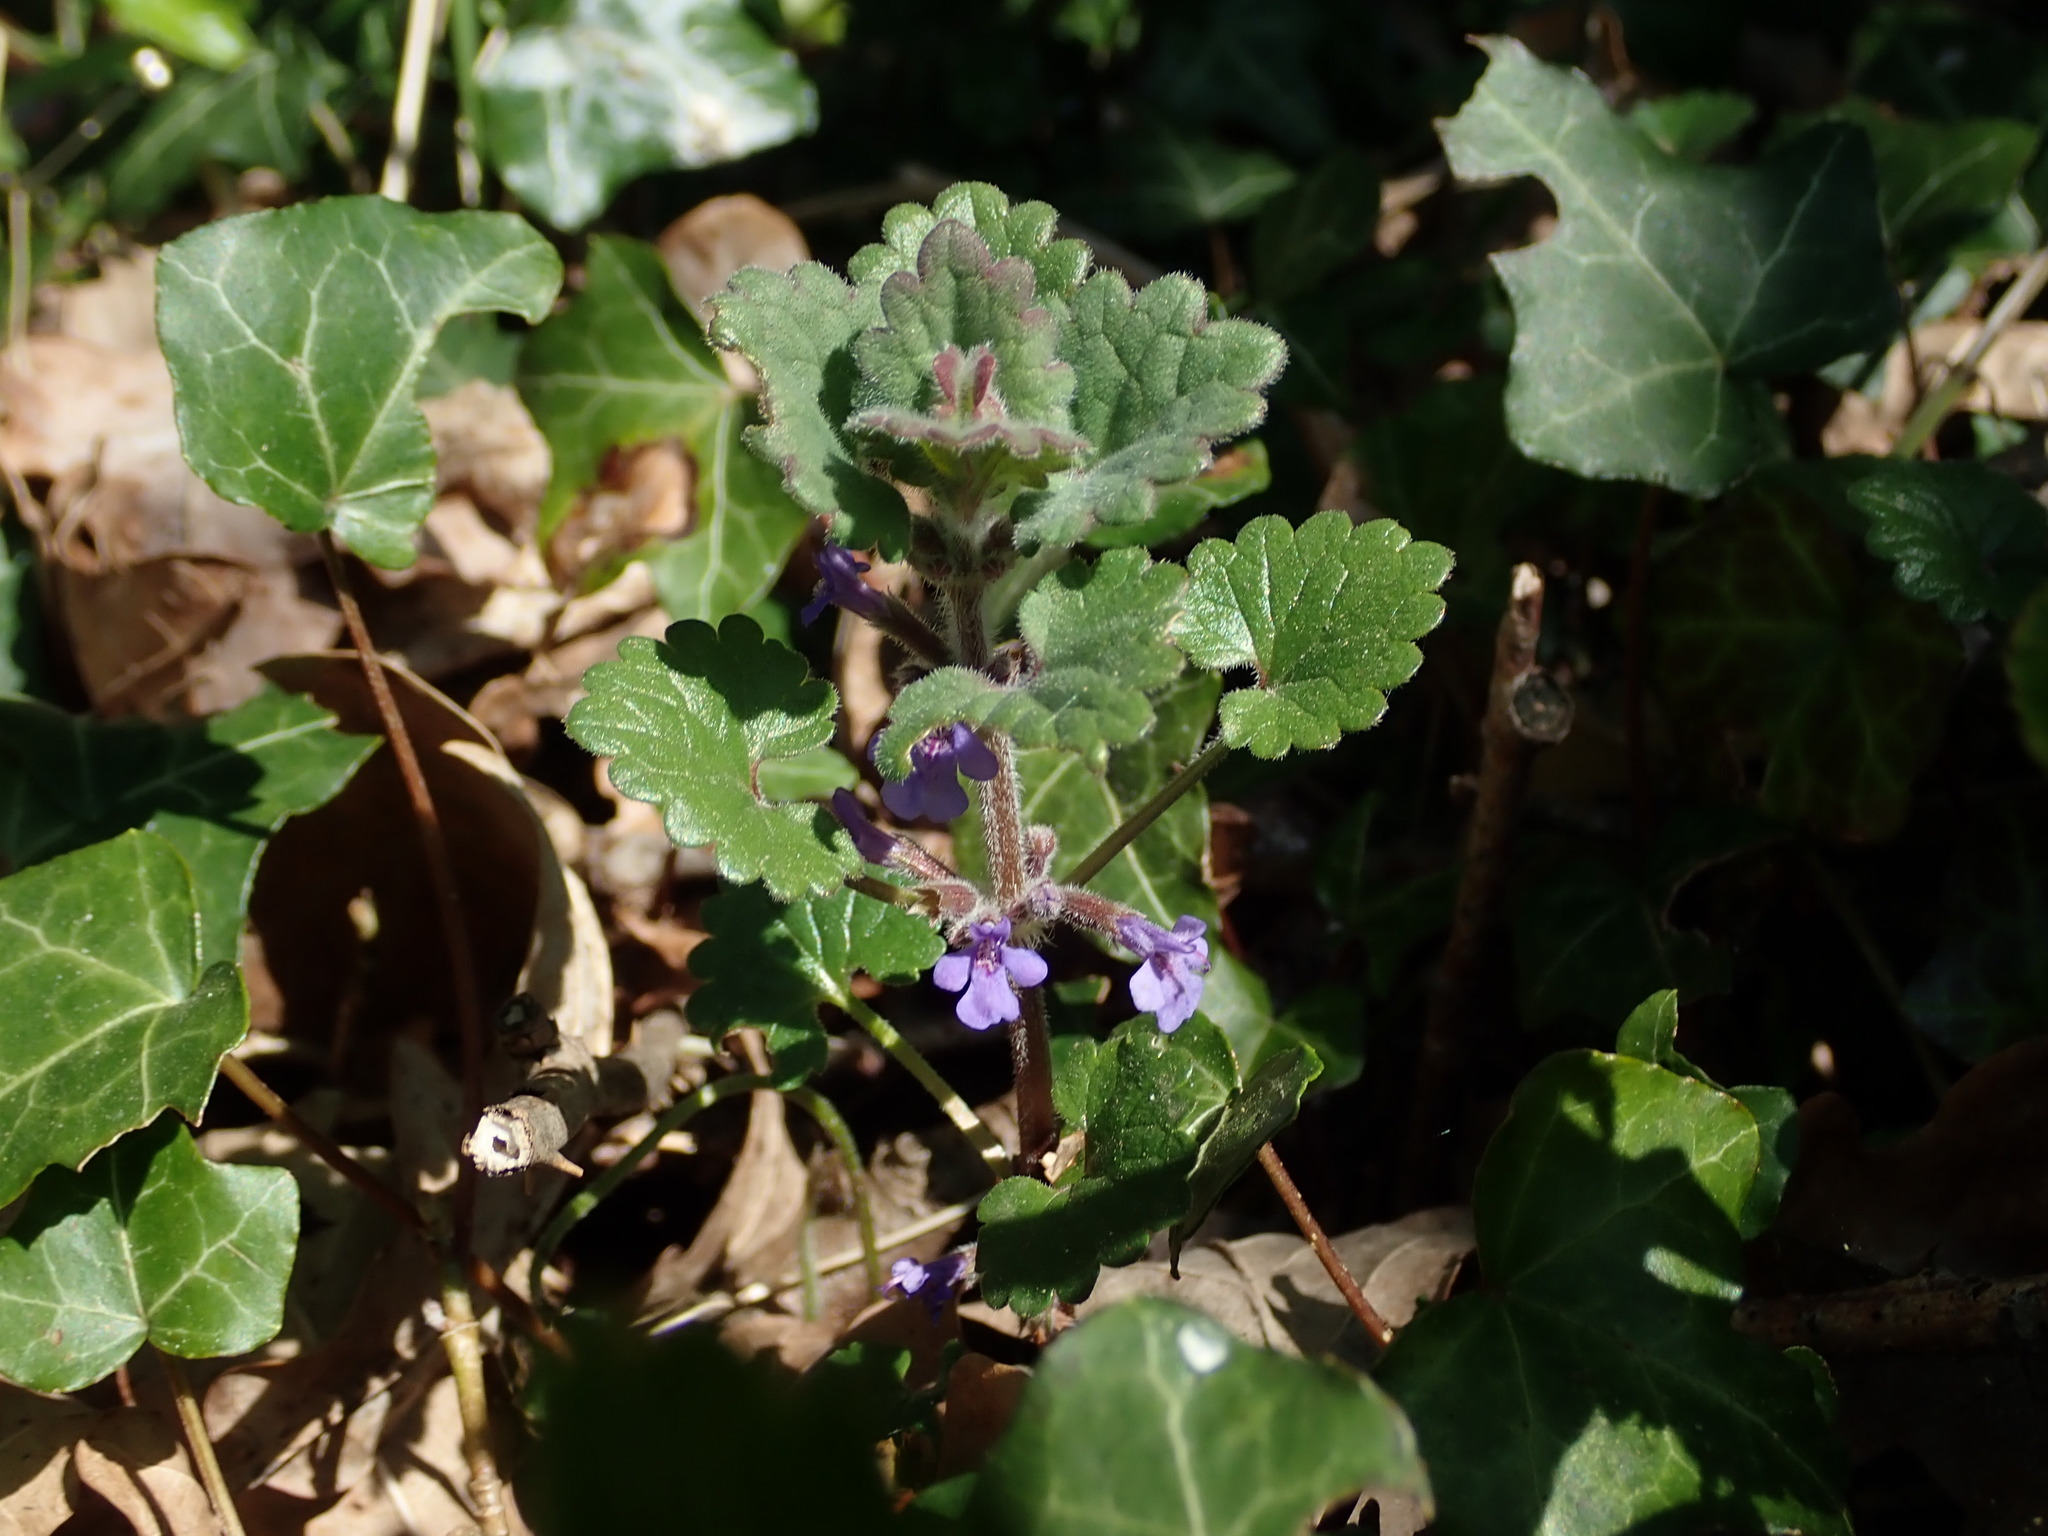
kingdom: Plantae
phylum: Tracheophyta
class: Magnoliopsida
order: Lamiales
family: Lamiaceae
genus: Glechoma
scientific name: Glechoma hederacea
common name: Ground ivy
